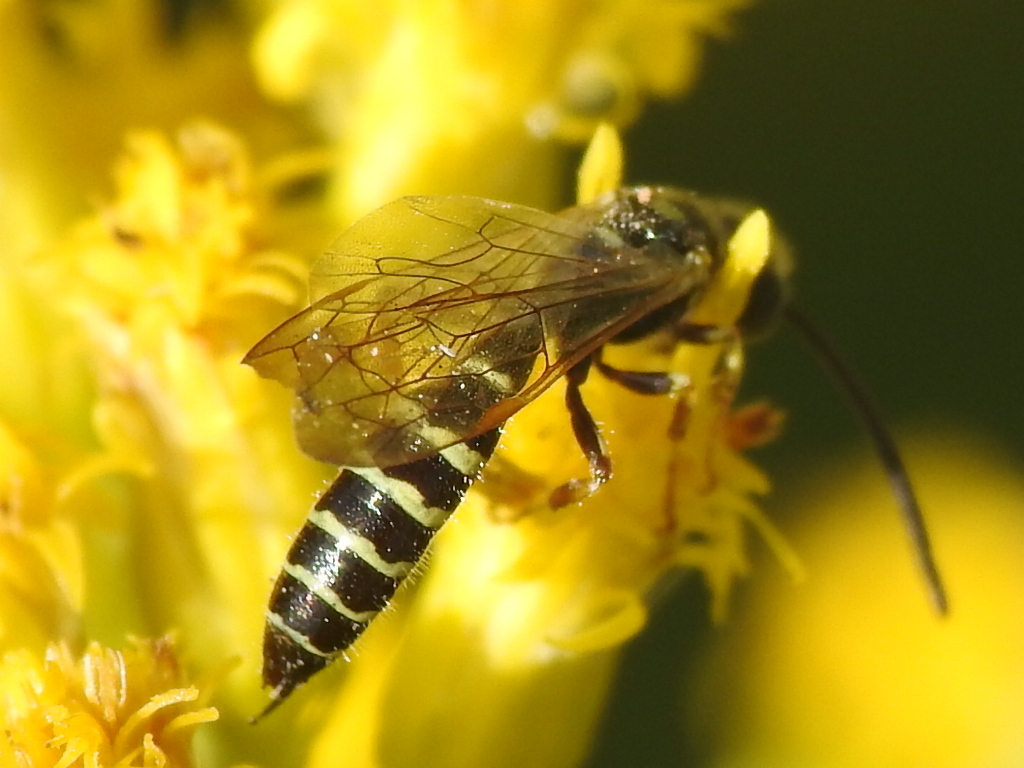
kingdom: Animalia
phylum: Arthropoda
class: Insecta
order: Hymenoptera
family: Tiphiidae
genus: Myzinum
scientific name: Myzinum quinquecinctum
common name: Five-banded thynnid wasp
